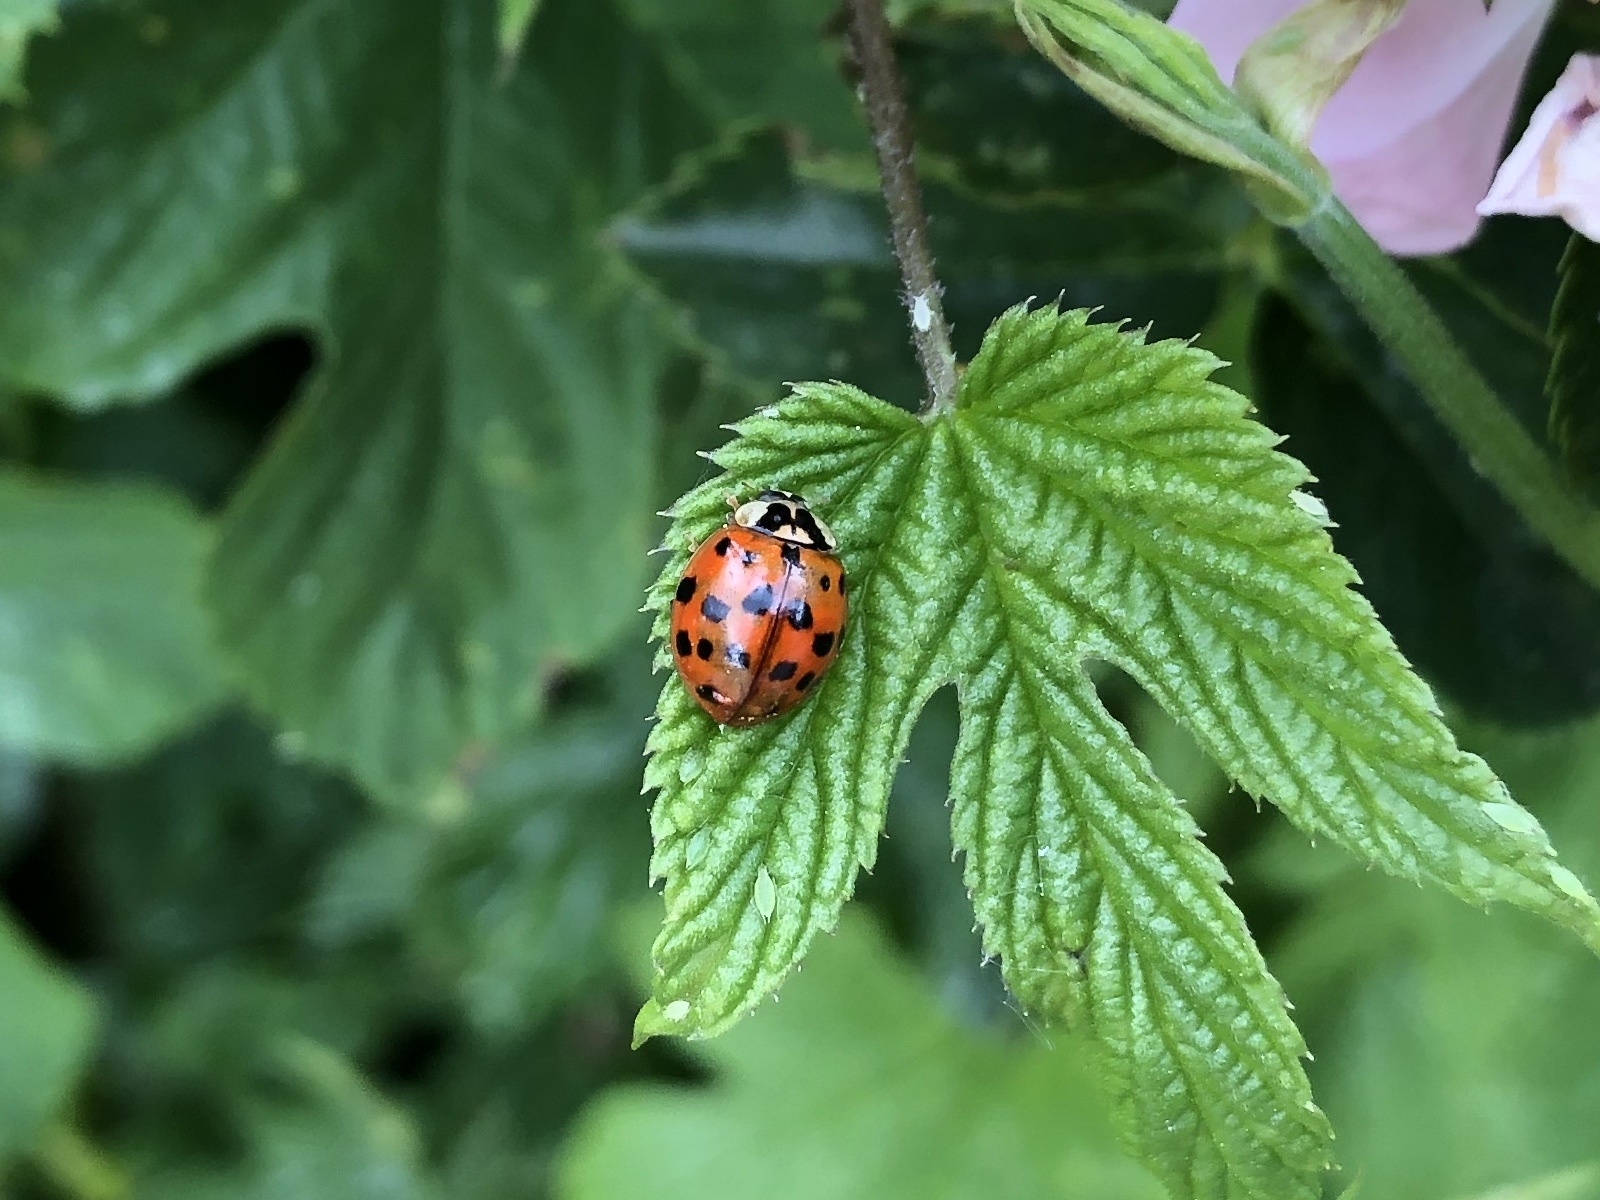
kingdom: Animalia
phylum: Arthropoda
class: Insecta
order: Coleoptera
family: Coccinellidae
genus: Harmonia
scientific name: Harmonia axyridis
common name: Harlequin ladybird
